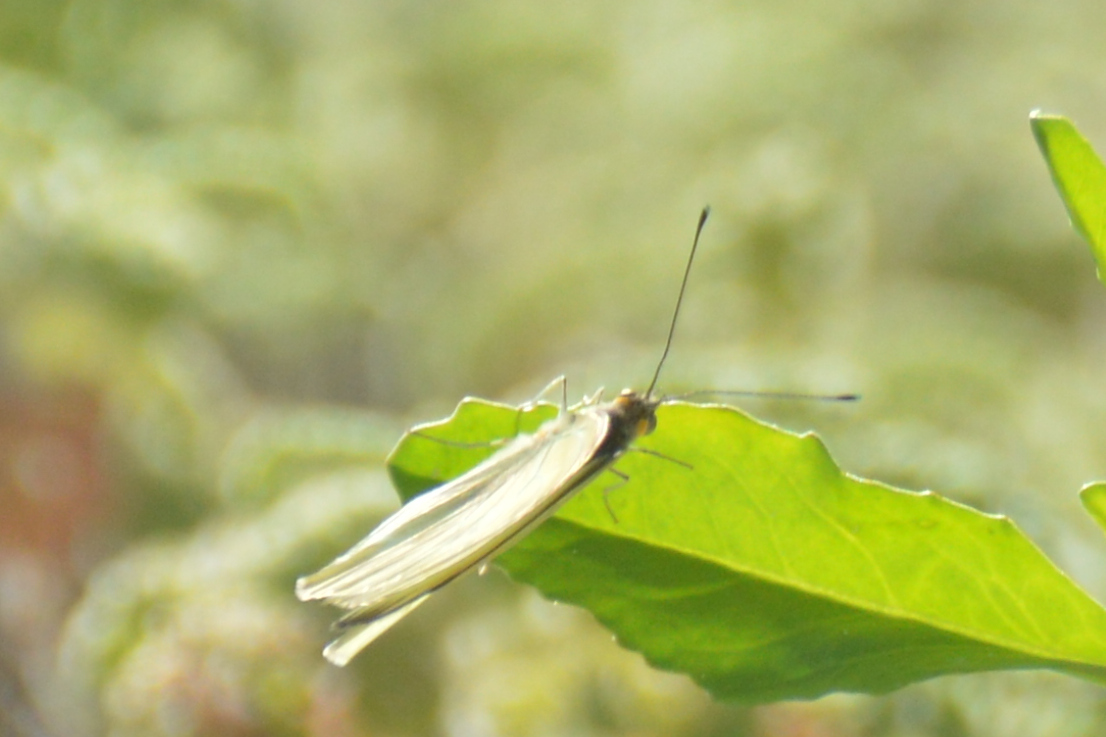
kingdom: Animalia
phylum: Arthropoda
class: Insecta
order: Lepidoptera
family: Pieridae
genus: Ascia
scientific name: Ascia monuste
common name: Great southern white
